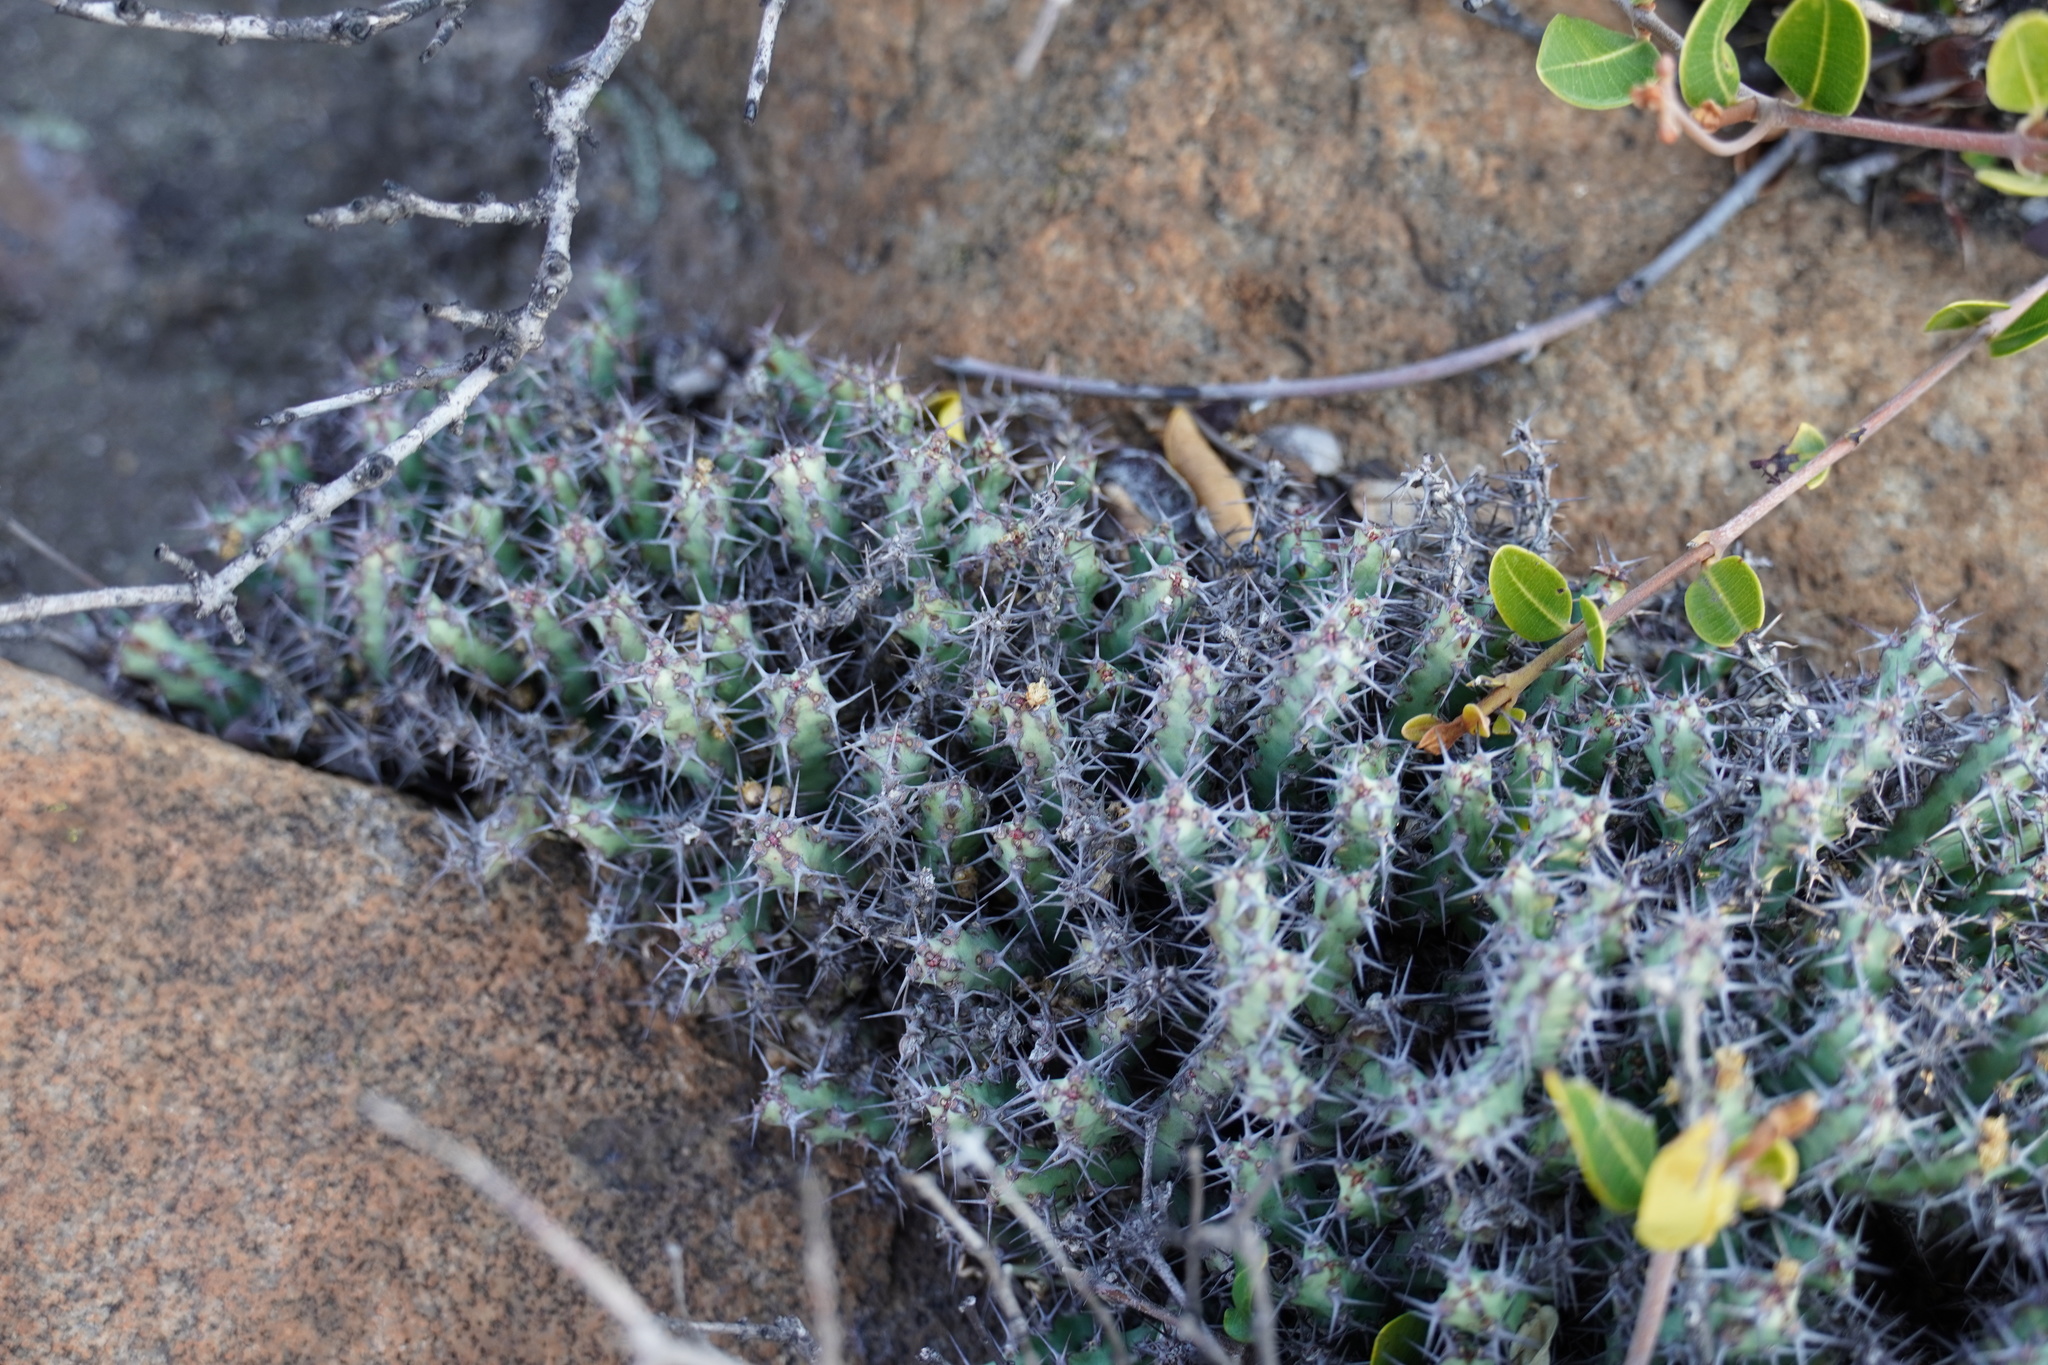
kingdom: Plantae
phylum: Tracheophyta
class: Magnoliopsida
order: Malpighiales
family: Euphorbiaceae
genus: Euphorbia
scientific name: Euphorbia schinzii
